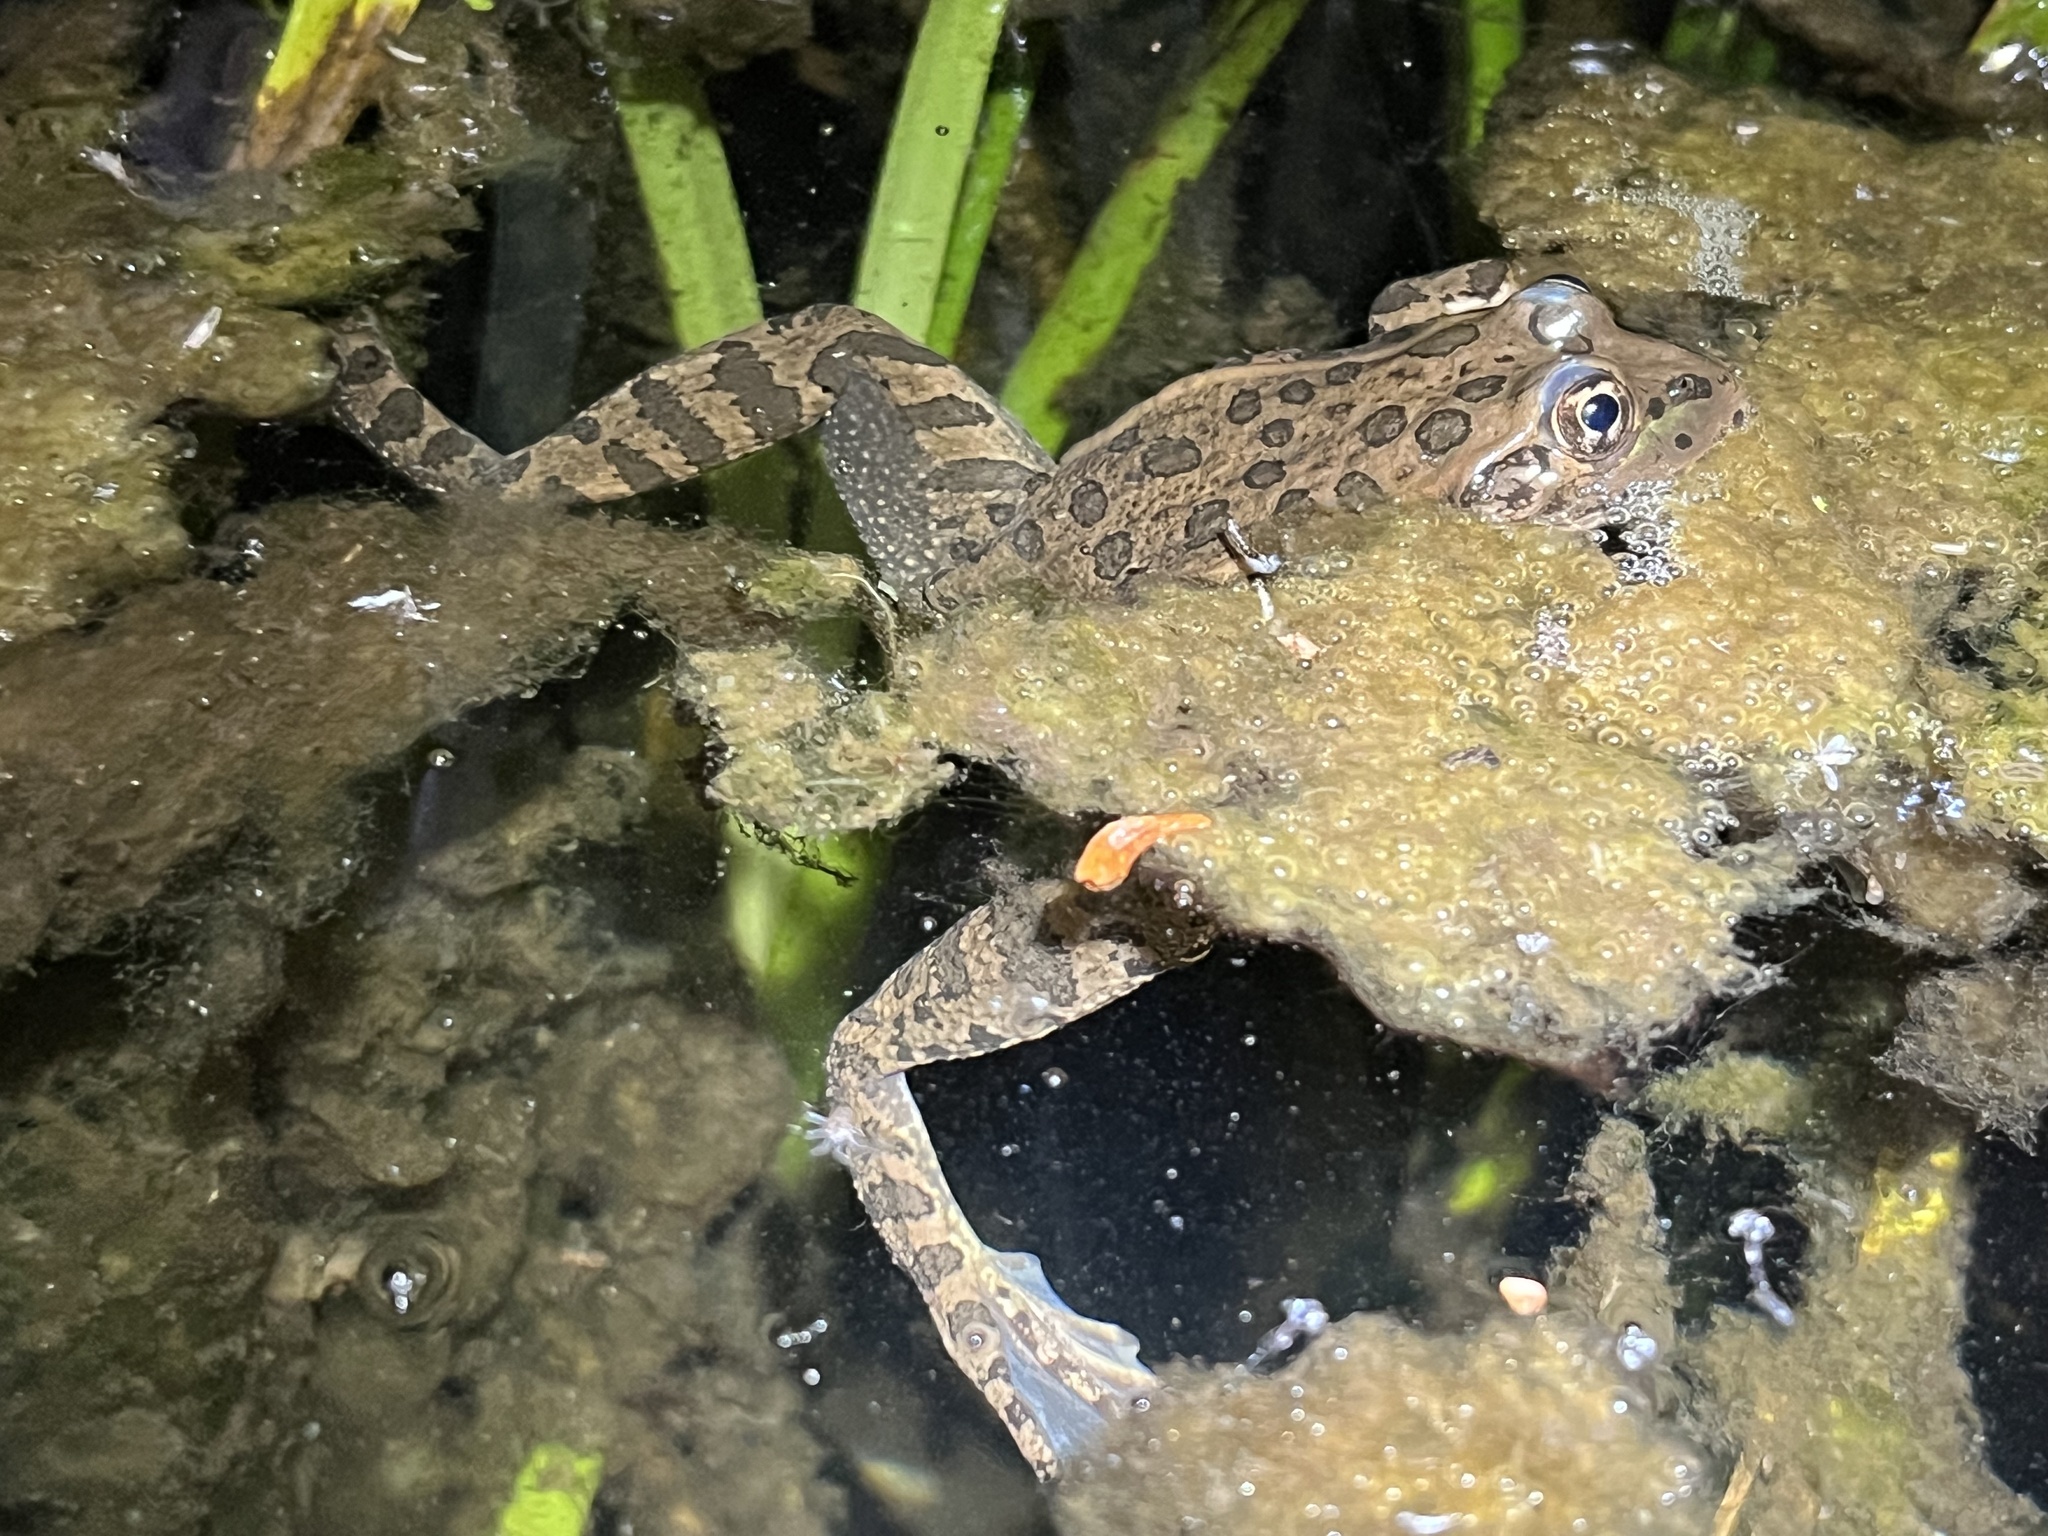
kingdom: Animalia
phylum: Chordata
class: Amphibia
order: Anura
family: Ranidae
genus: Lithobates
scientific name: Lithobates chiricahuensis
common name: Chiricahua leopard frog
